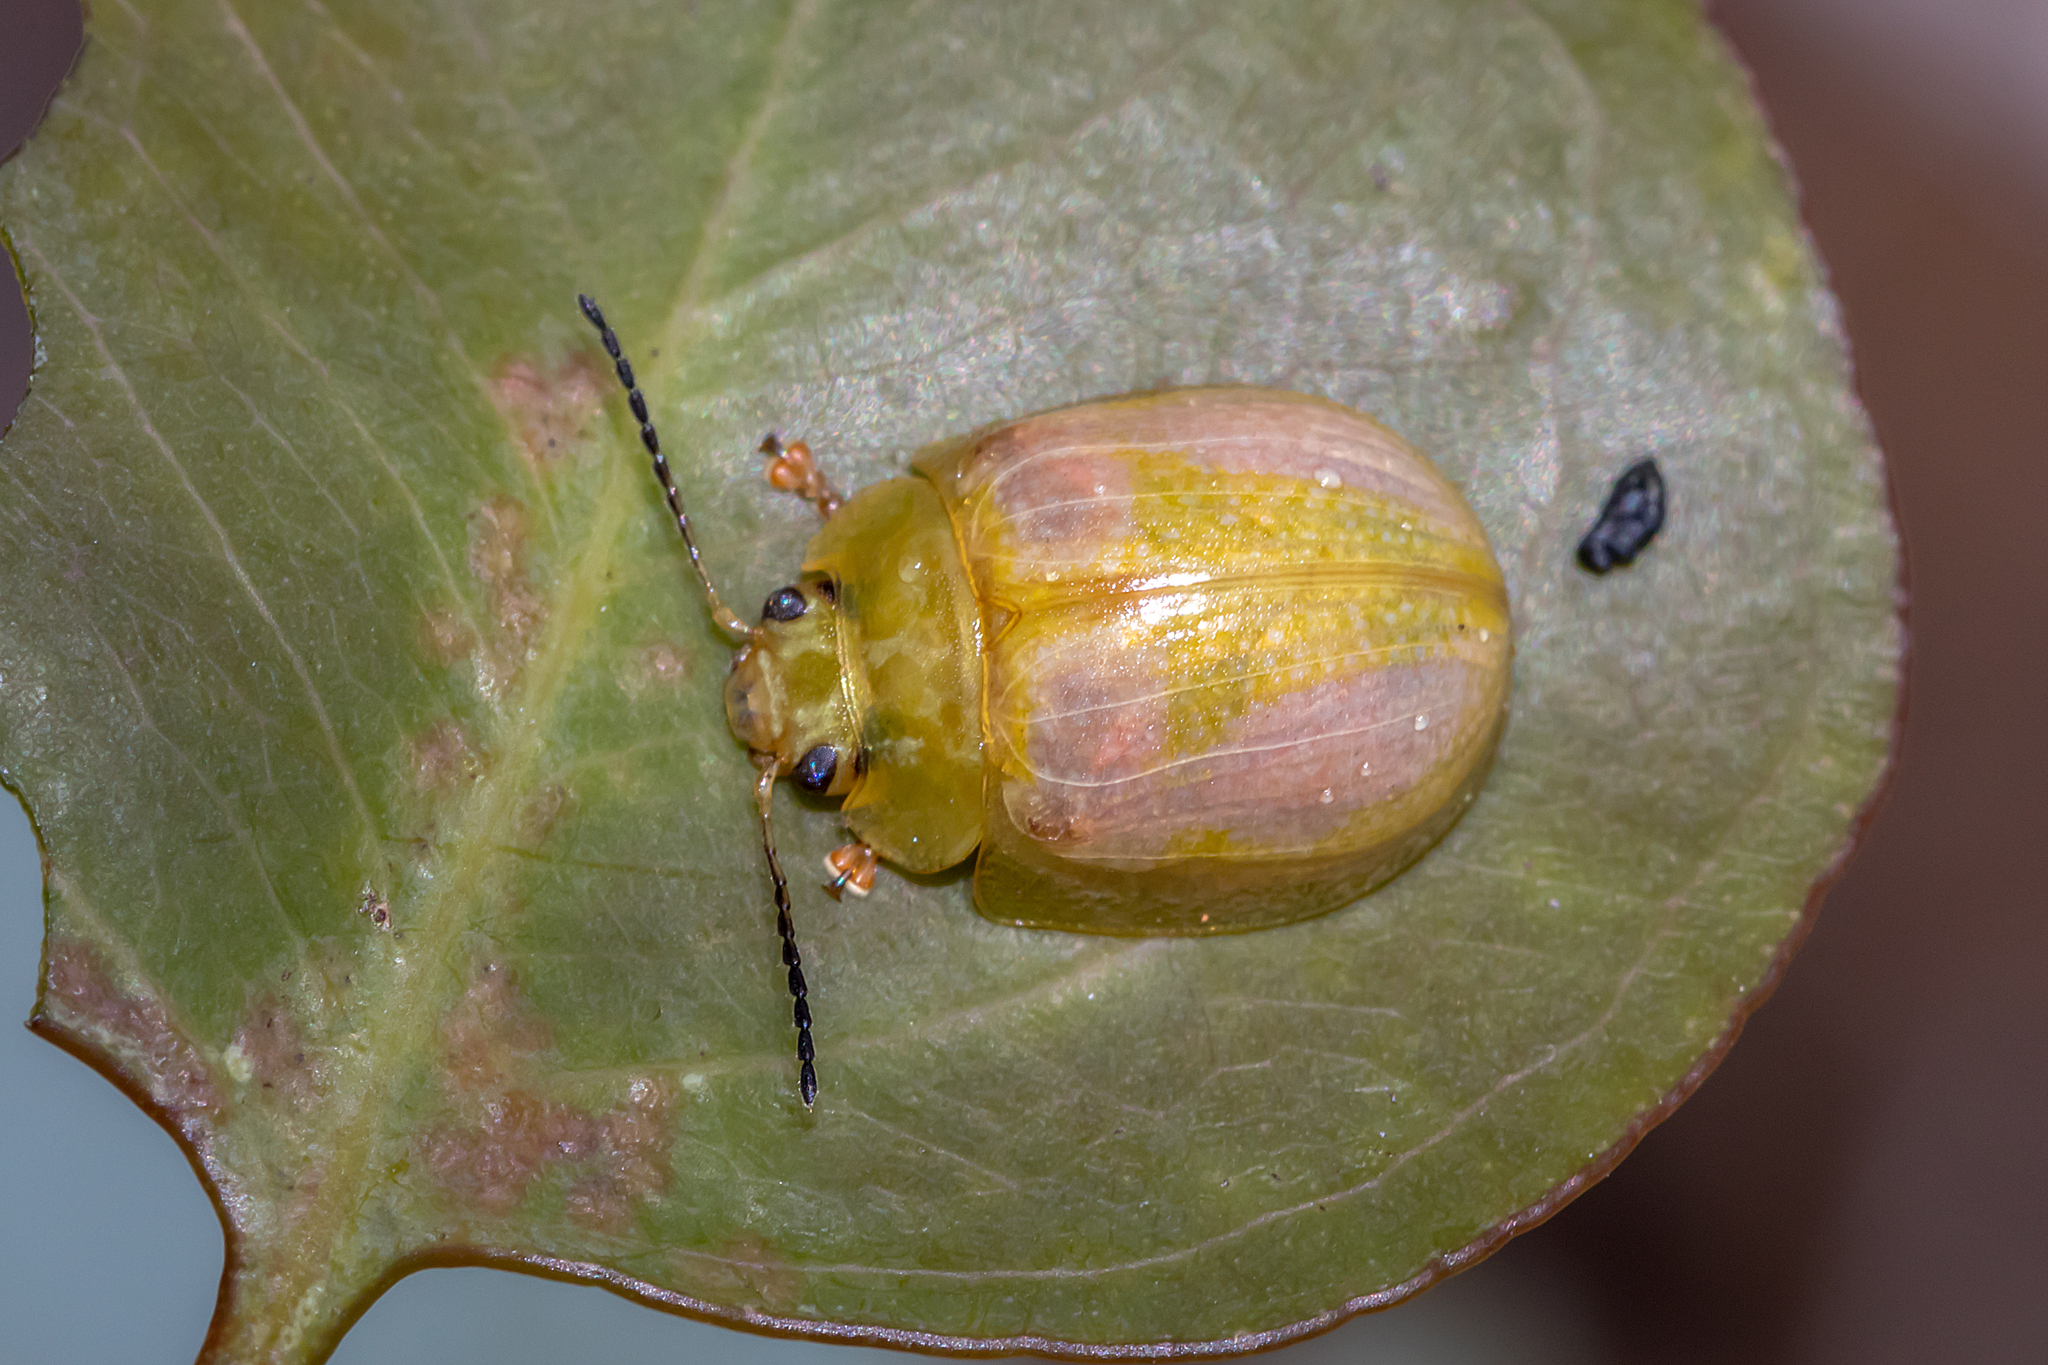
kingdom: Animalia
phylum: Arthropoda
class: Insecta
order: Coleoptera
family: Chrysomelidae
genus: Paropsisterna
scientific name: Paropsisterna
